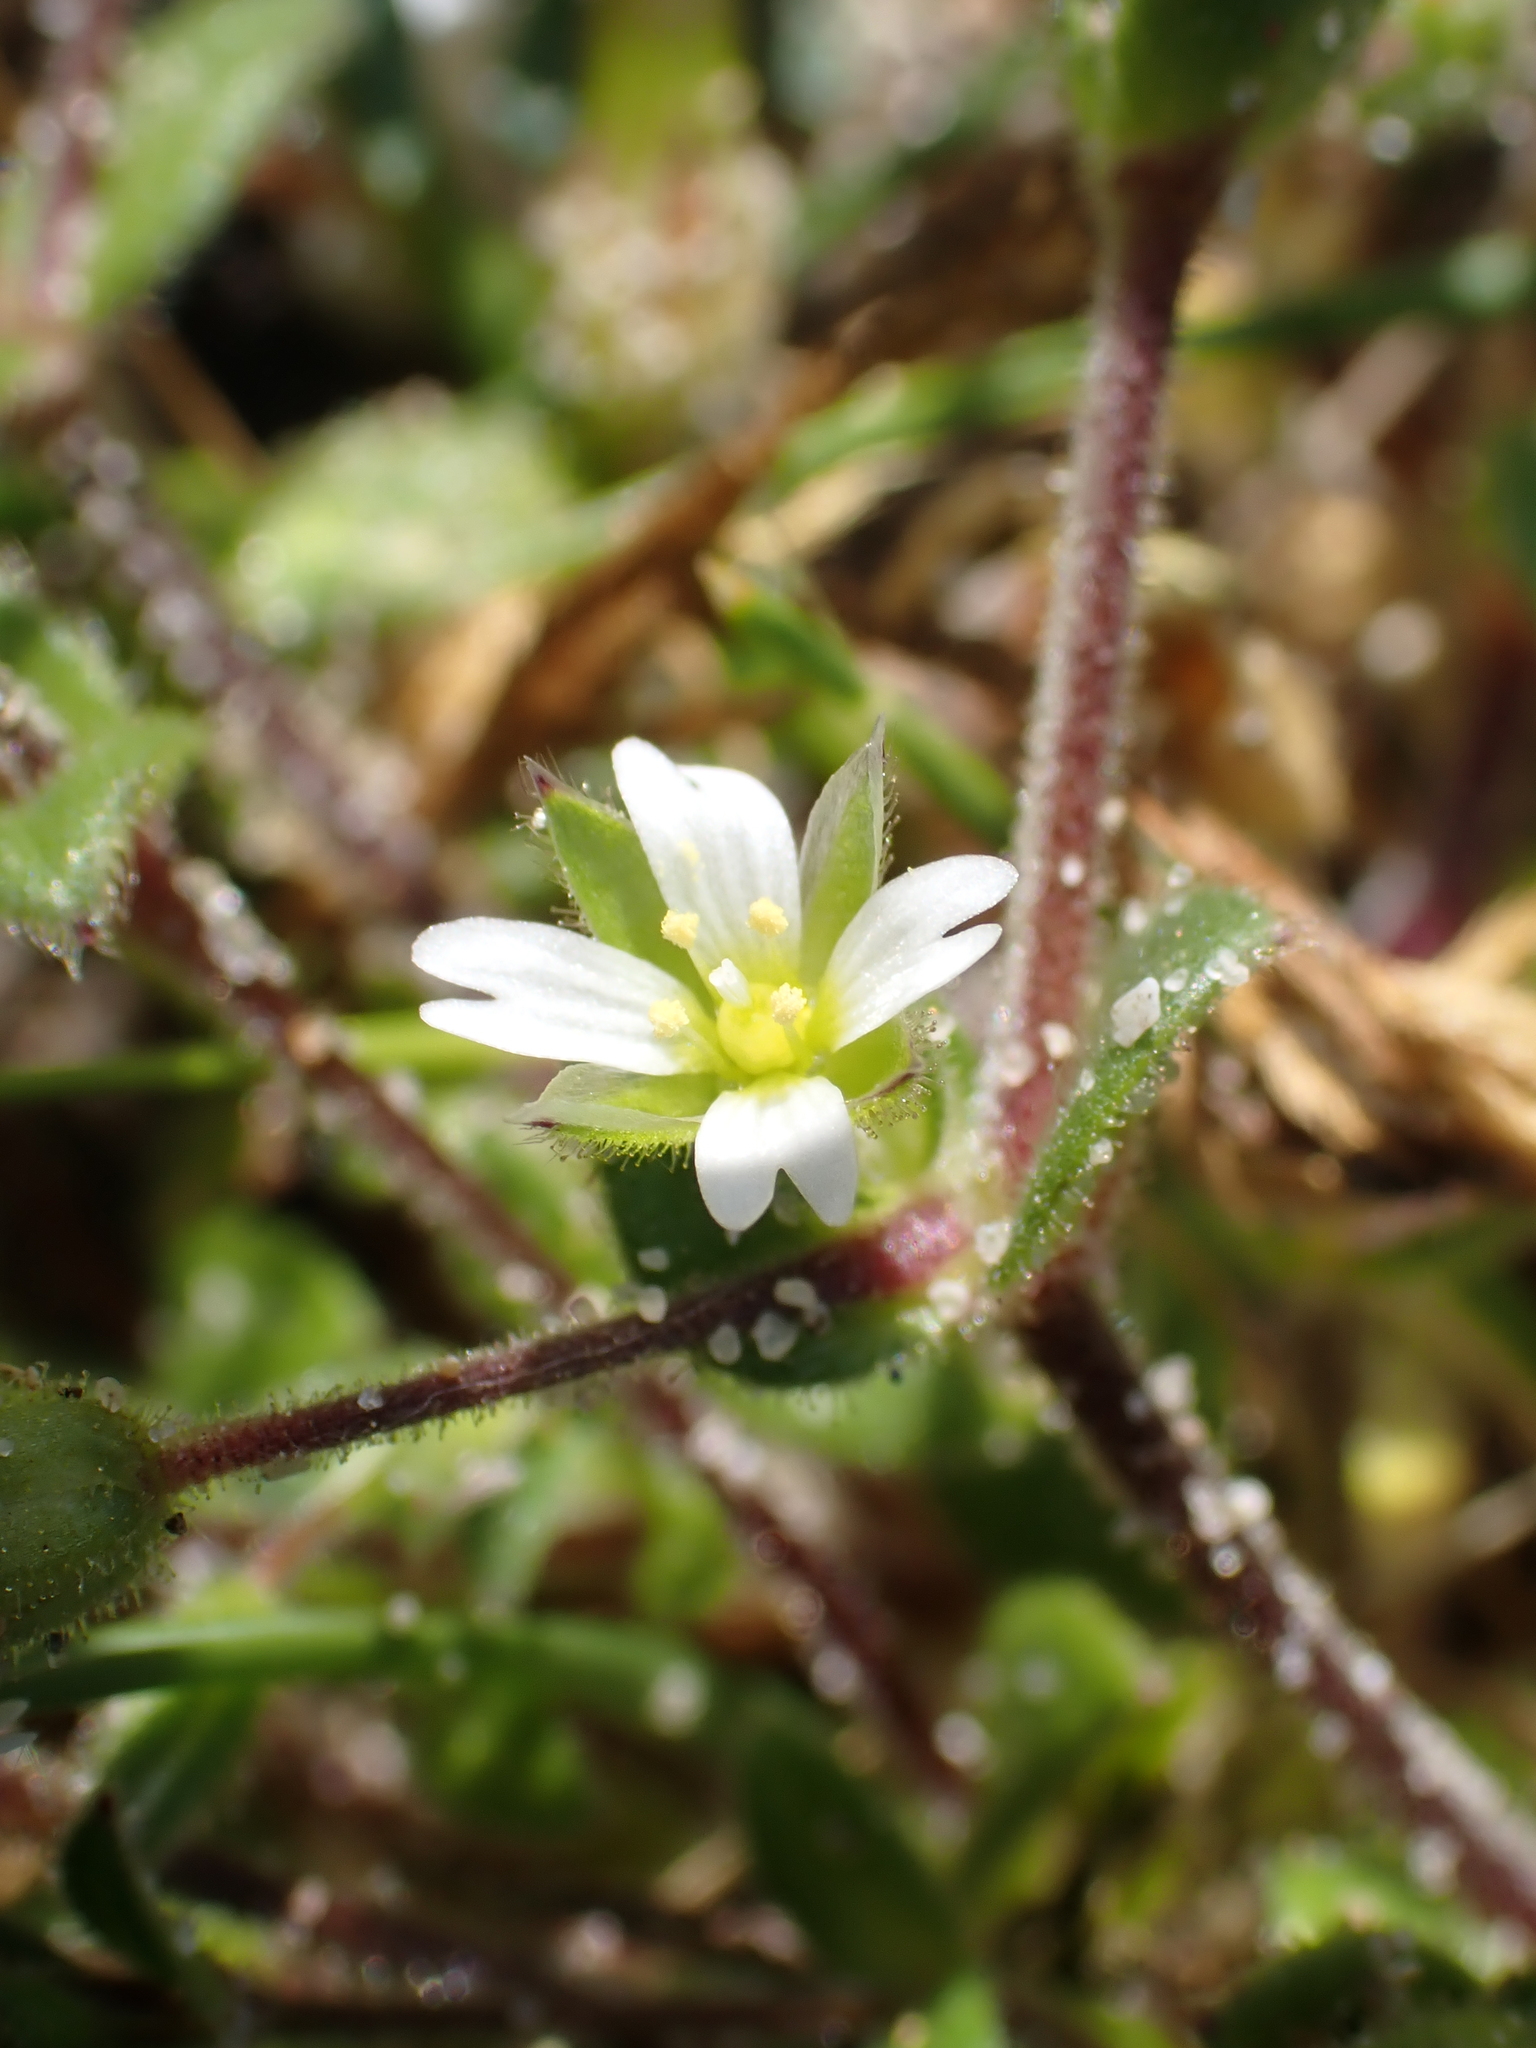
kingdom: Plantae
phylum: Tracheophyta
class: Magnoliopsida
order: Caryophyllales
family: Caryophyllaceae
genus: Cerastium
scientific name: Cerastium diffusum
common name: Fourstamen chickweed
